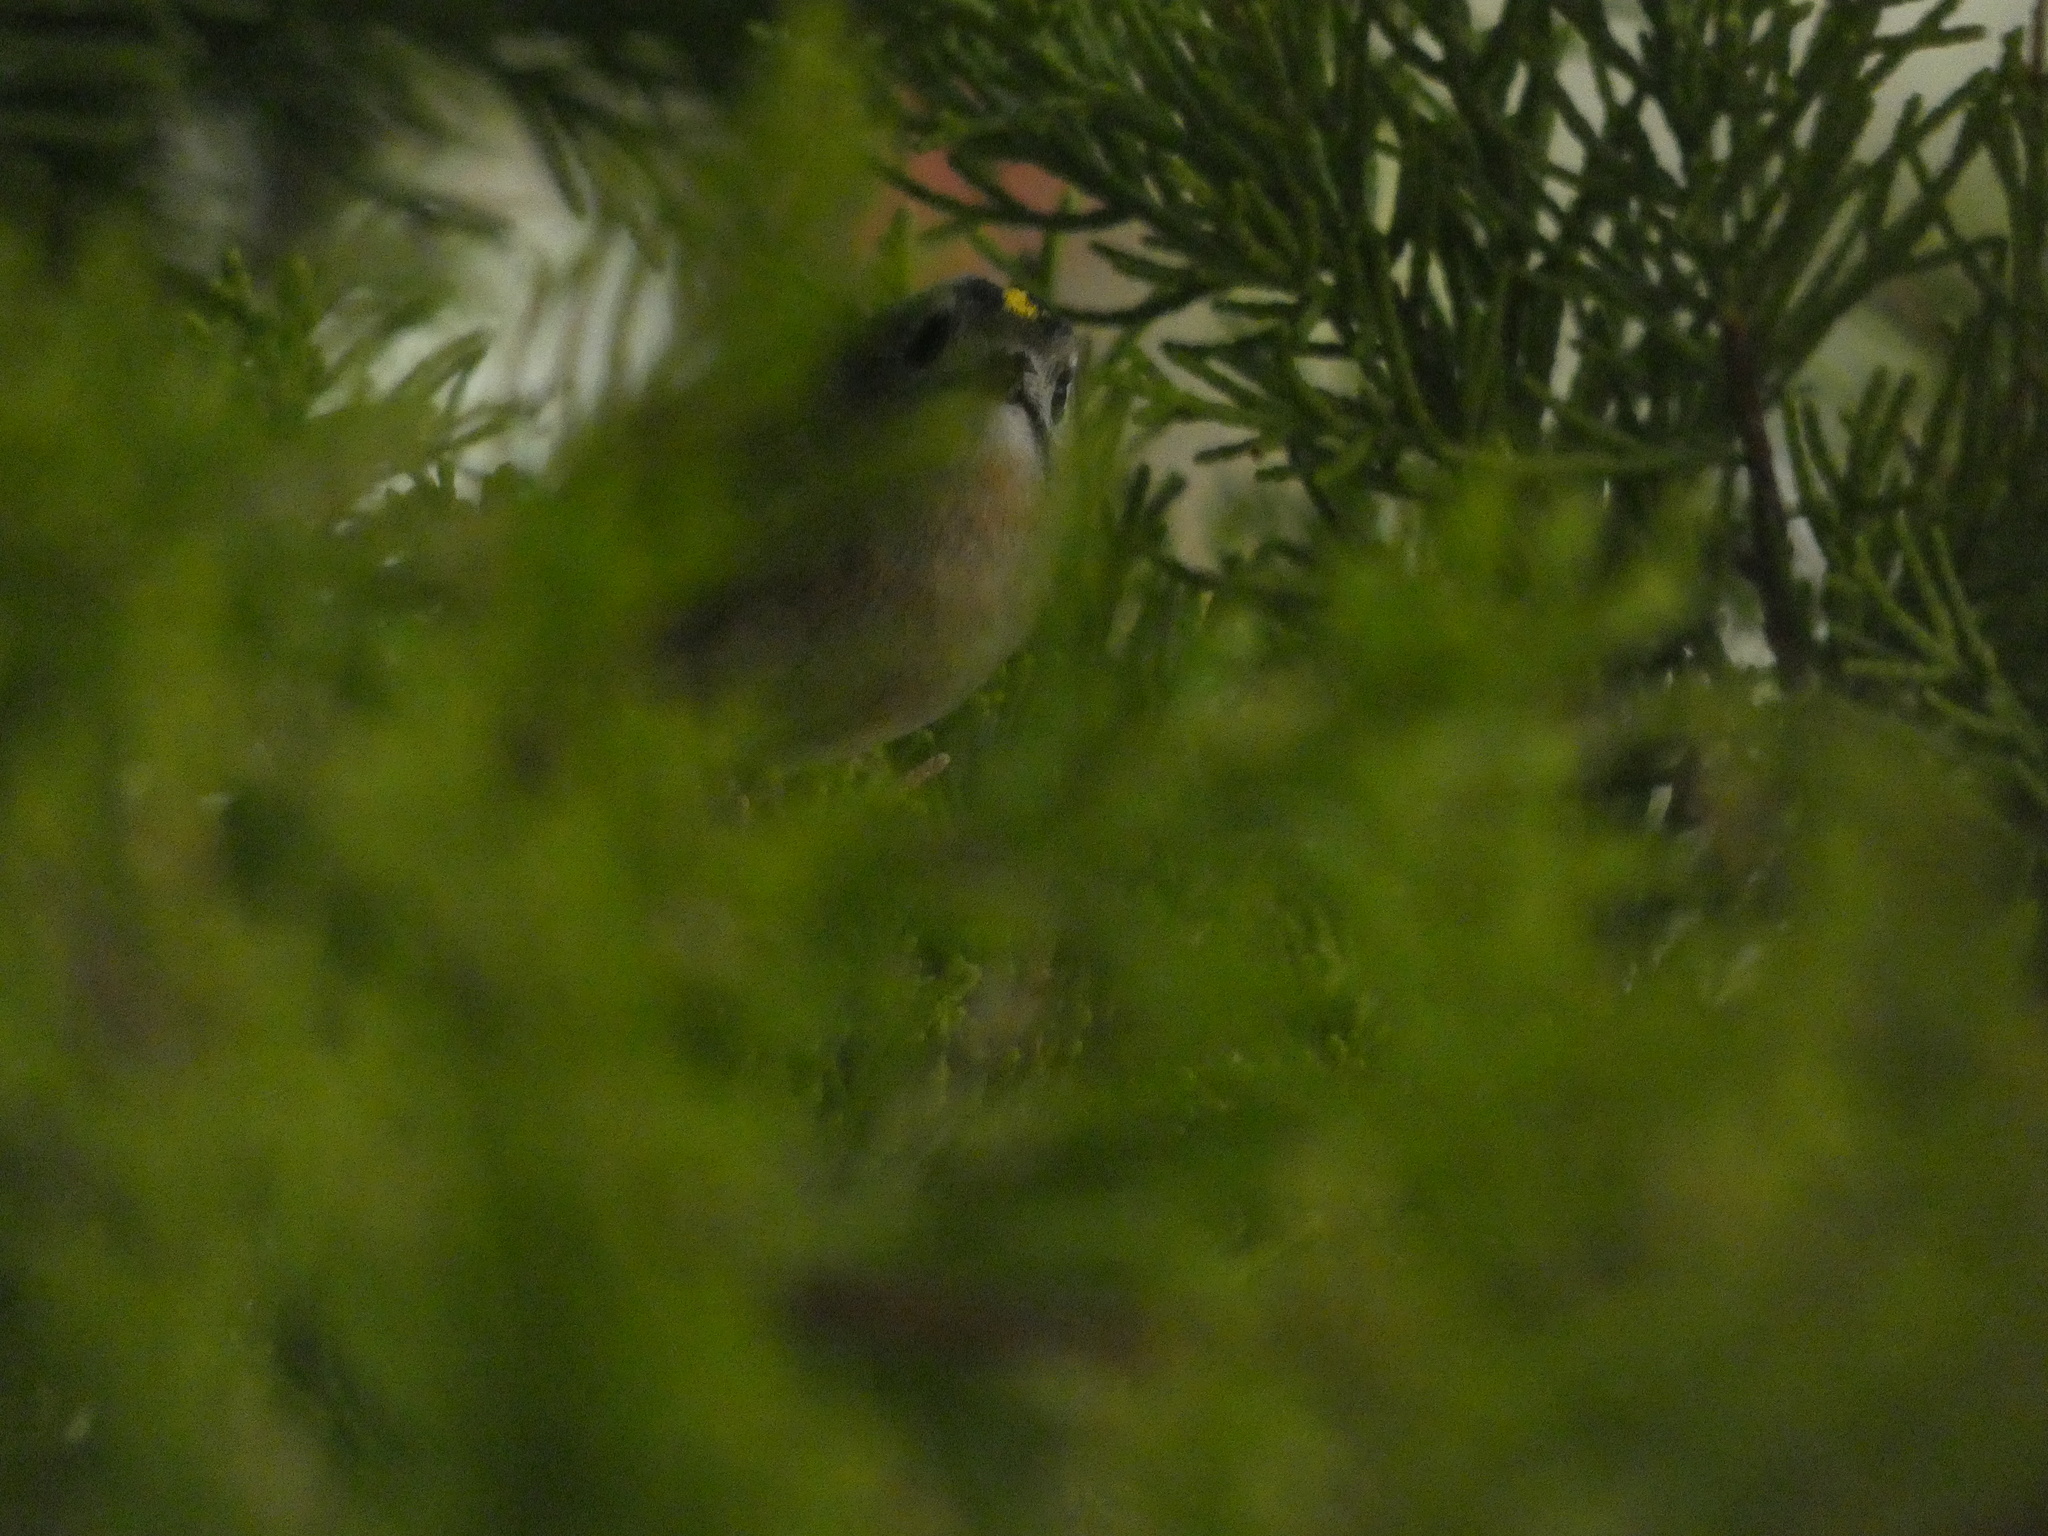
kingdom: Animalia
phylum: Chordata
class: Aves
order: Passeriformes
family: Regulidae
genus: Regulus
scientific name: Regulus regulus
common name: Goldcrest
